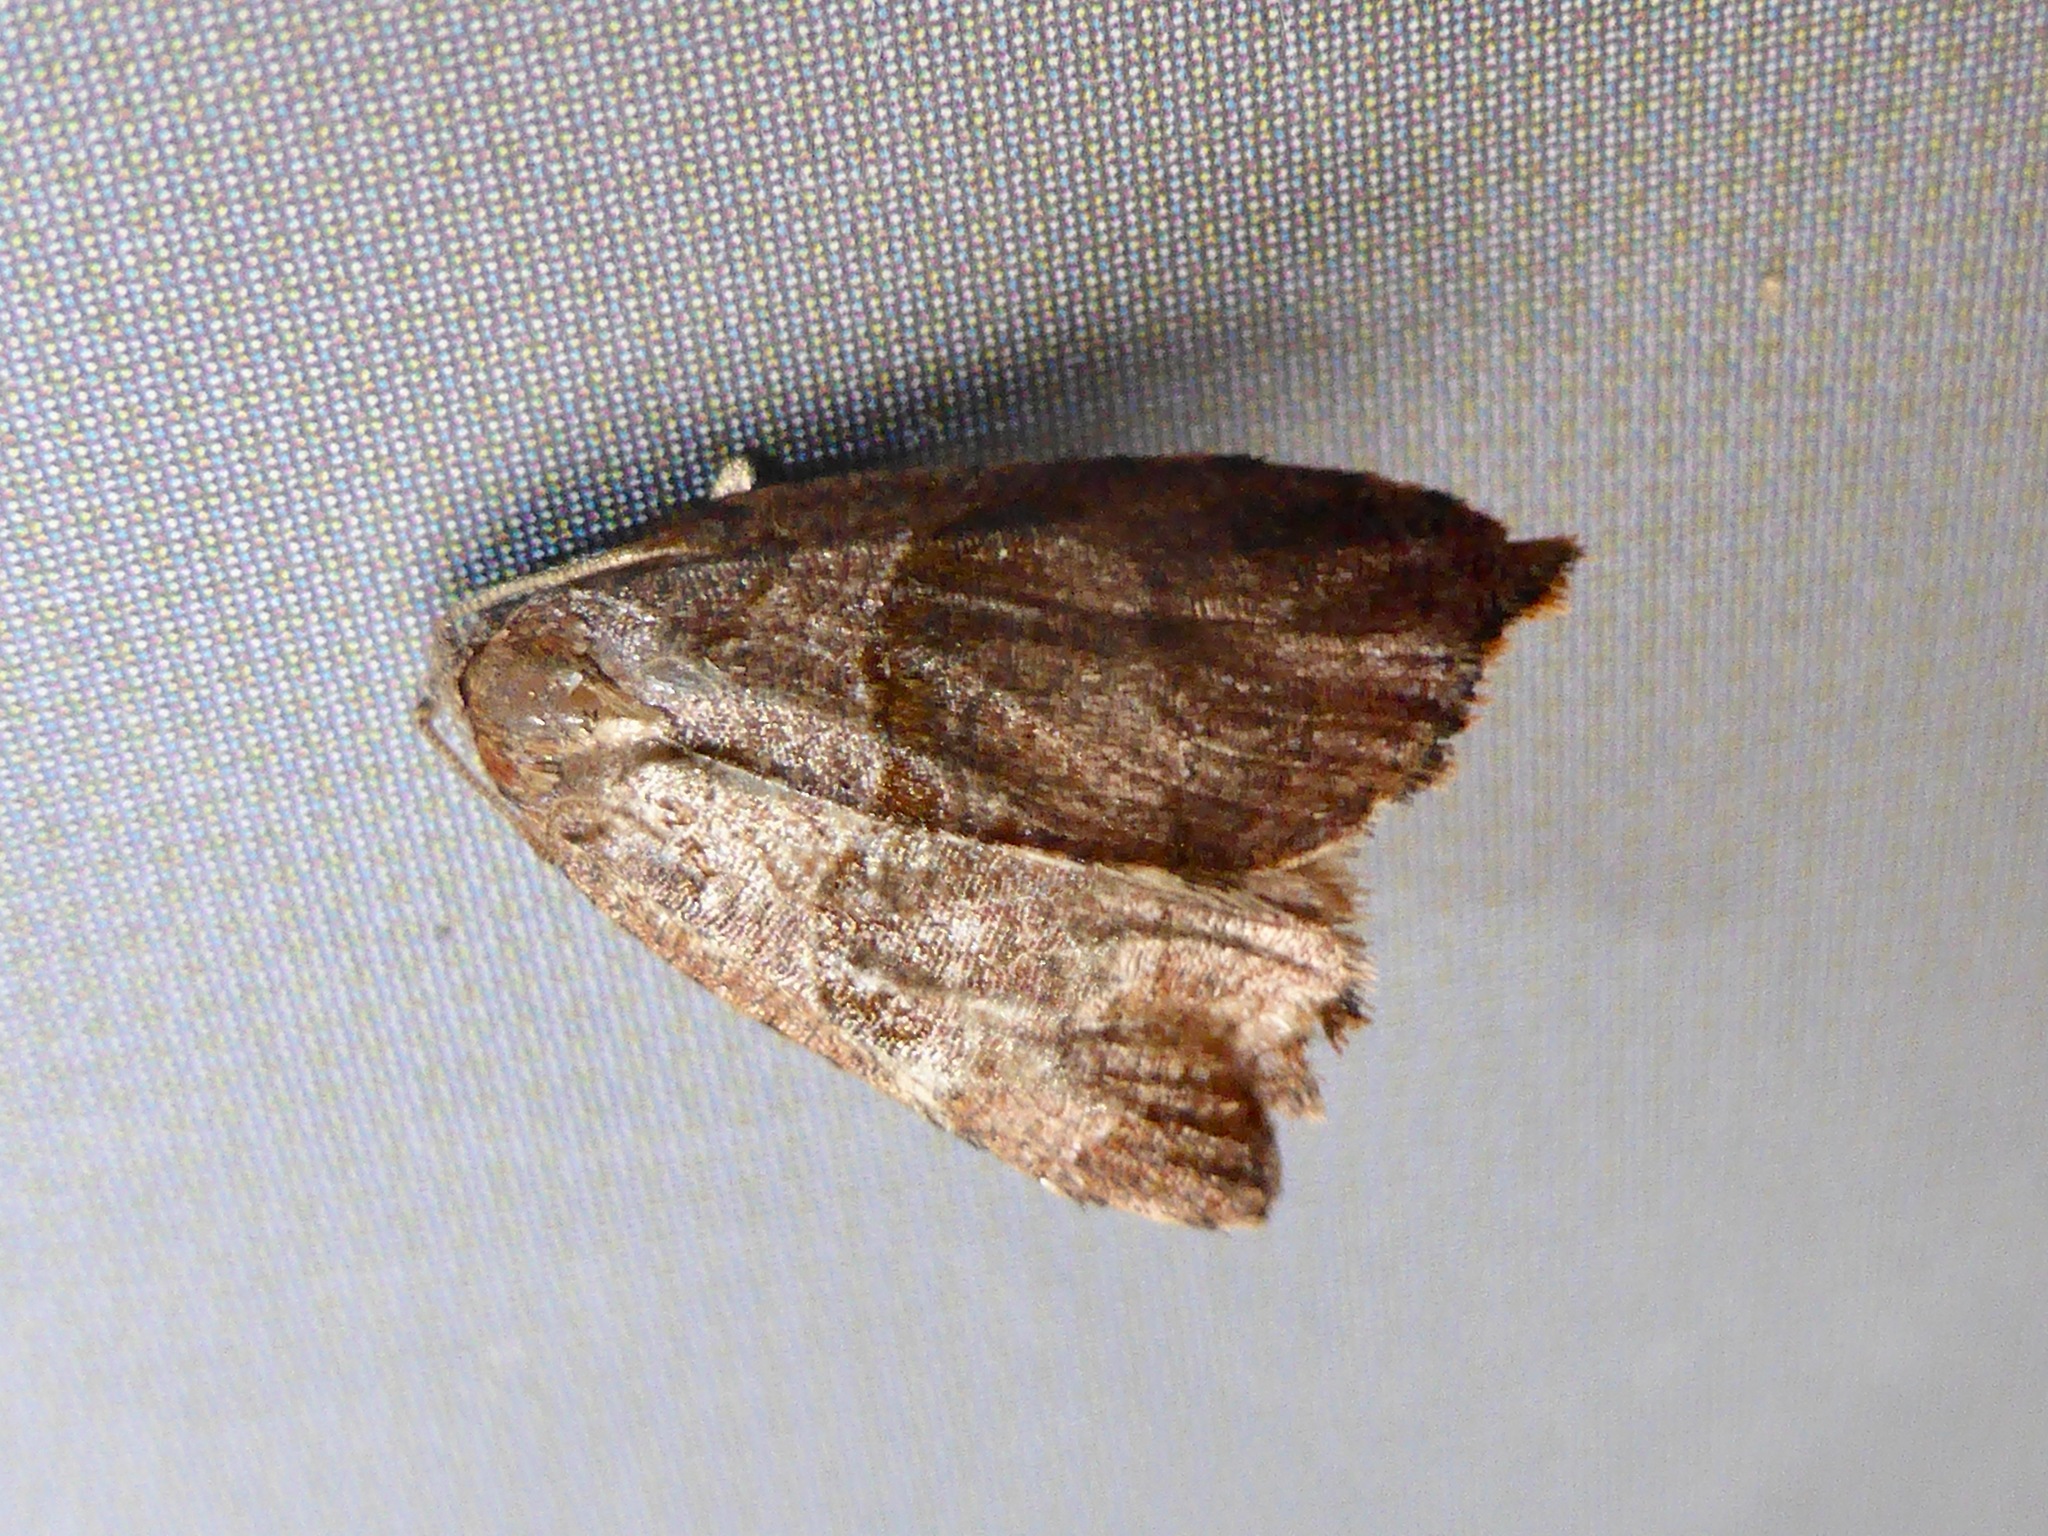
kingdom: Animalia
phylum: Arthropoda
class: Insecta
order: Lepidoptera
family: Tortricidae
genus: Cnephasia
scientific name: Cnephasia incertana
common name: Light grey tortrix
